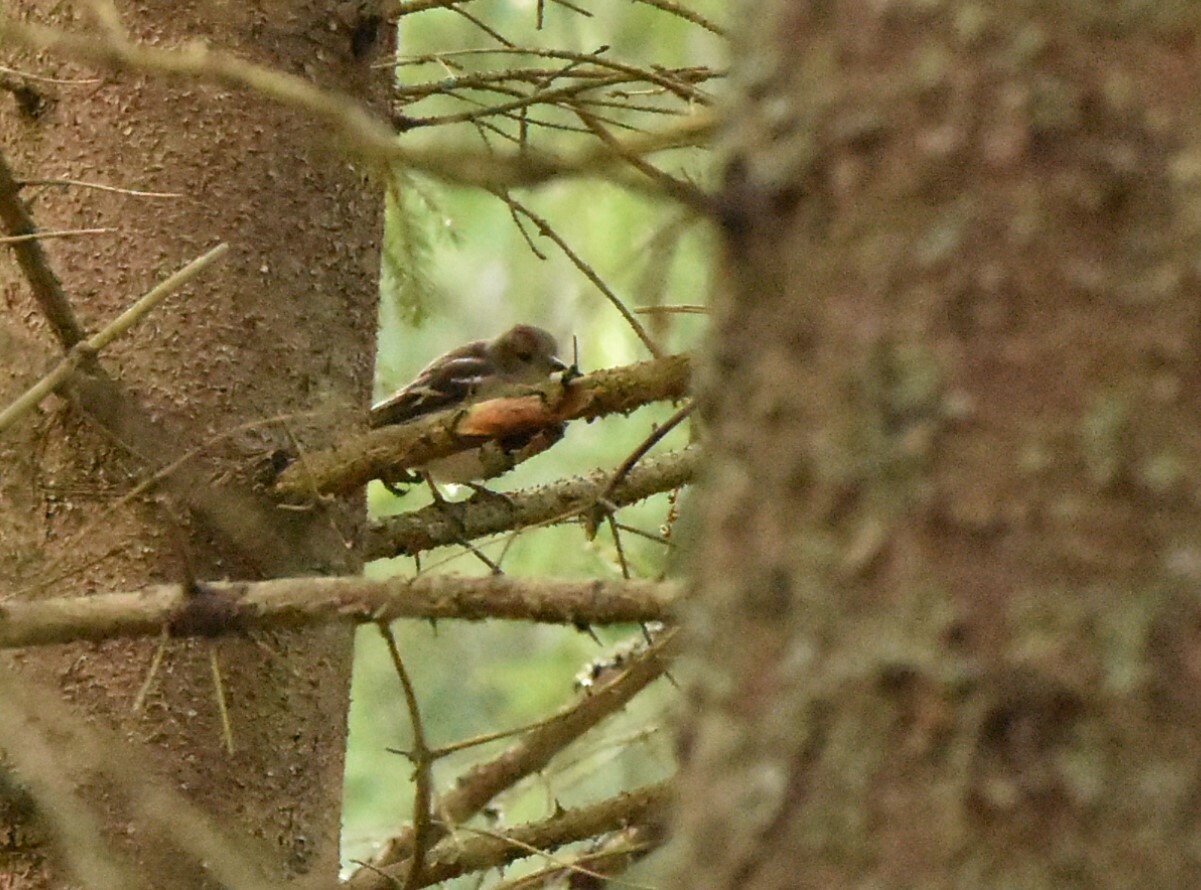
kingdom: Animalia
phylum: Chordata
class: Aves
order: Passeriformes
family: Fringillidae
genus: Fringilla
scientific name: Fringilla coelebs
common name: Common chaffinch
